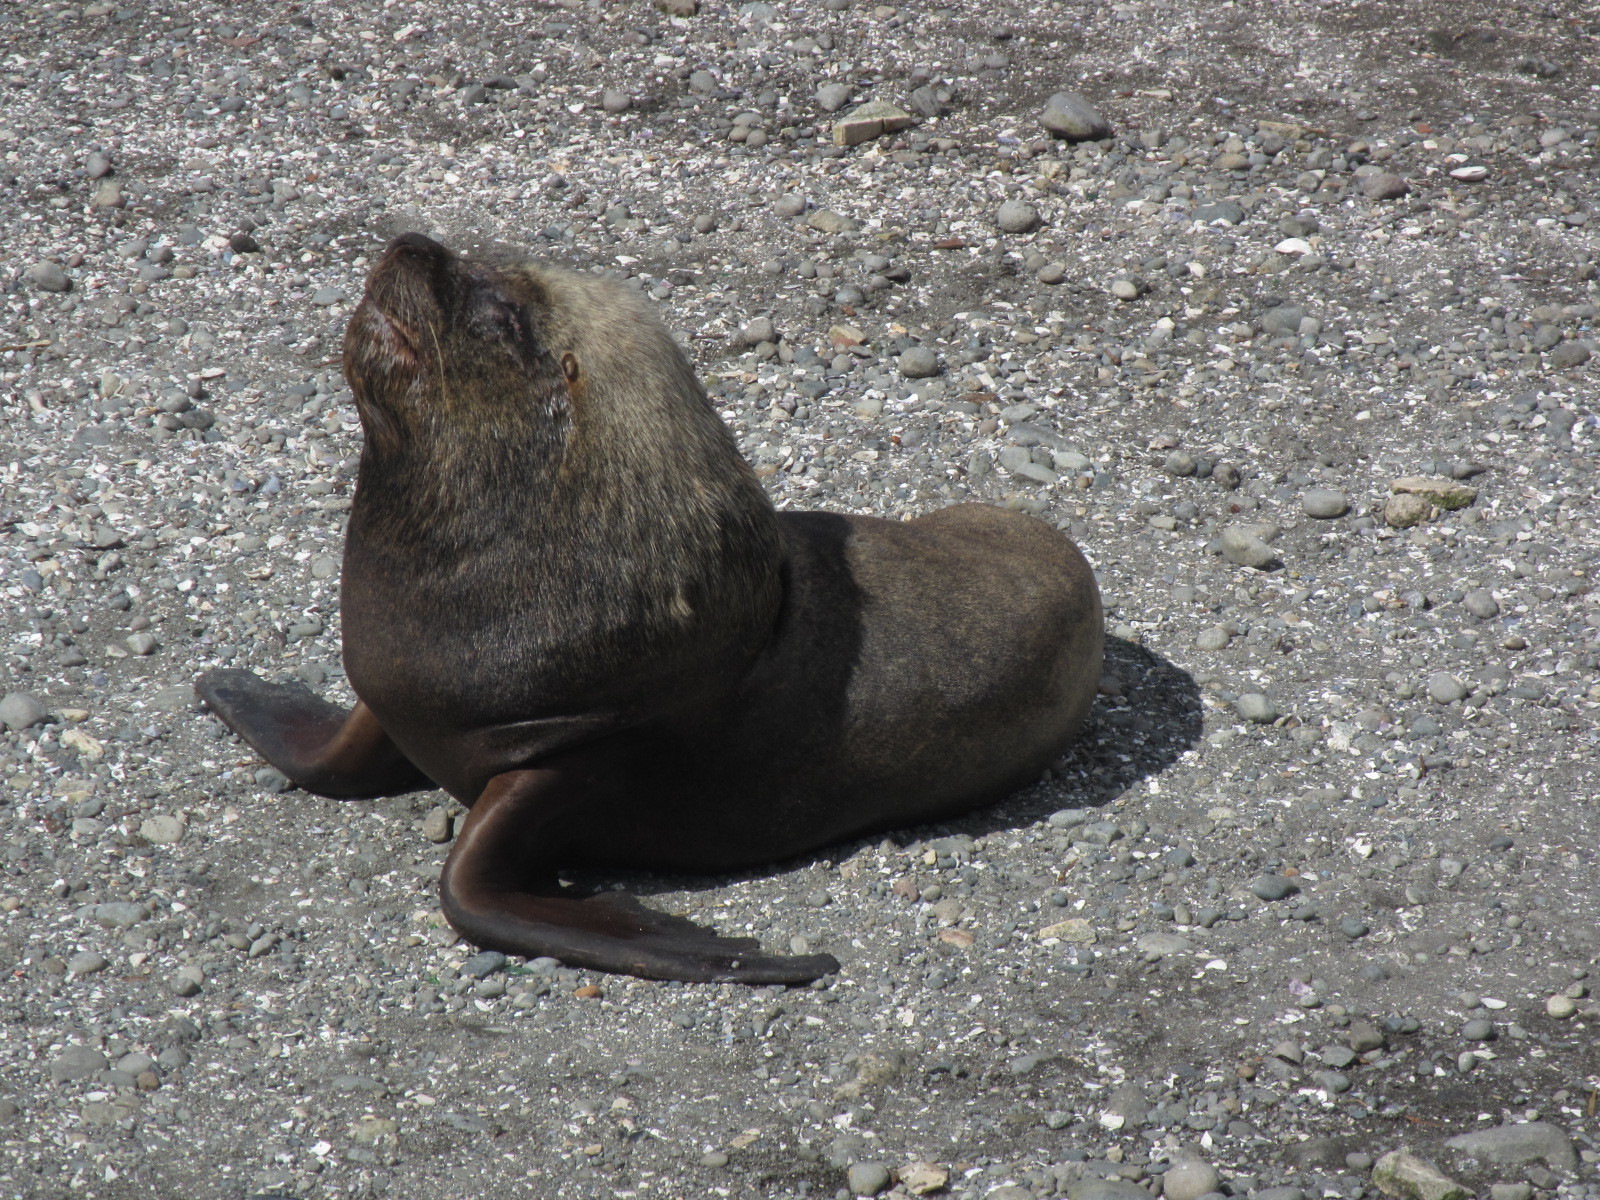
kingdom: Animalia
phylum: Chordata
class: Mammalia
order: Carnivora
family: Otariidae
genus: Otaria
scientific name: Otaria byronia
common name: South american sea lion
